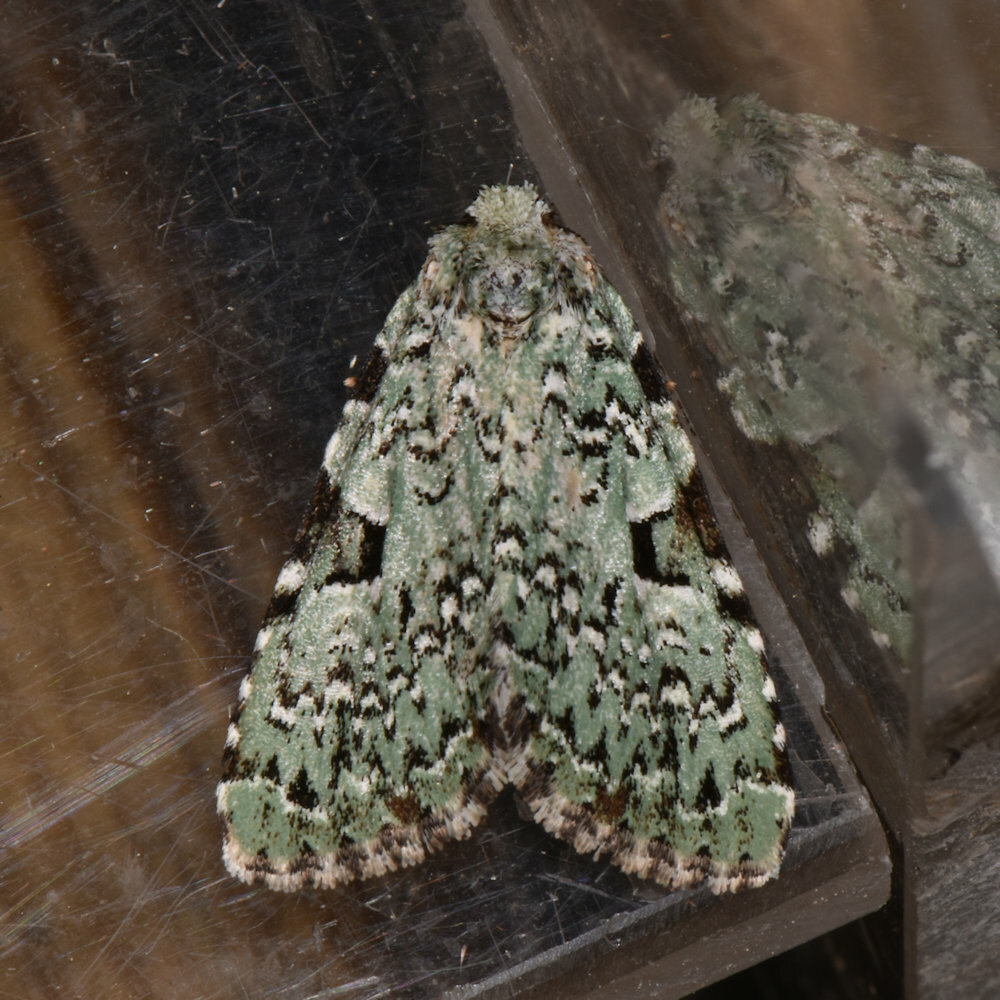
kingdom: Animalia
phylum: Arthropoda
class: Insecta
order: Lepidoptera
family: Noctuidae
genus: Leuconycta
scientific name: Leuconycta diphteroides
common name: Green leuconycta moth
